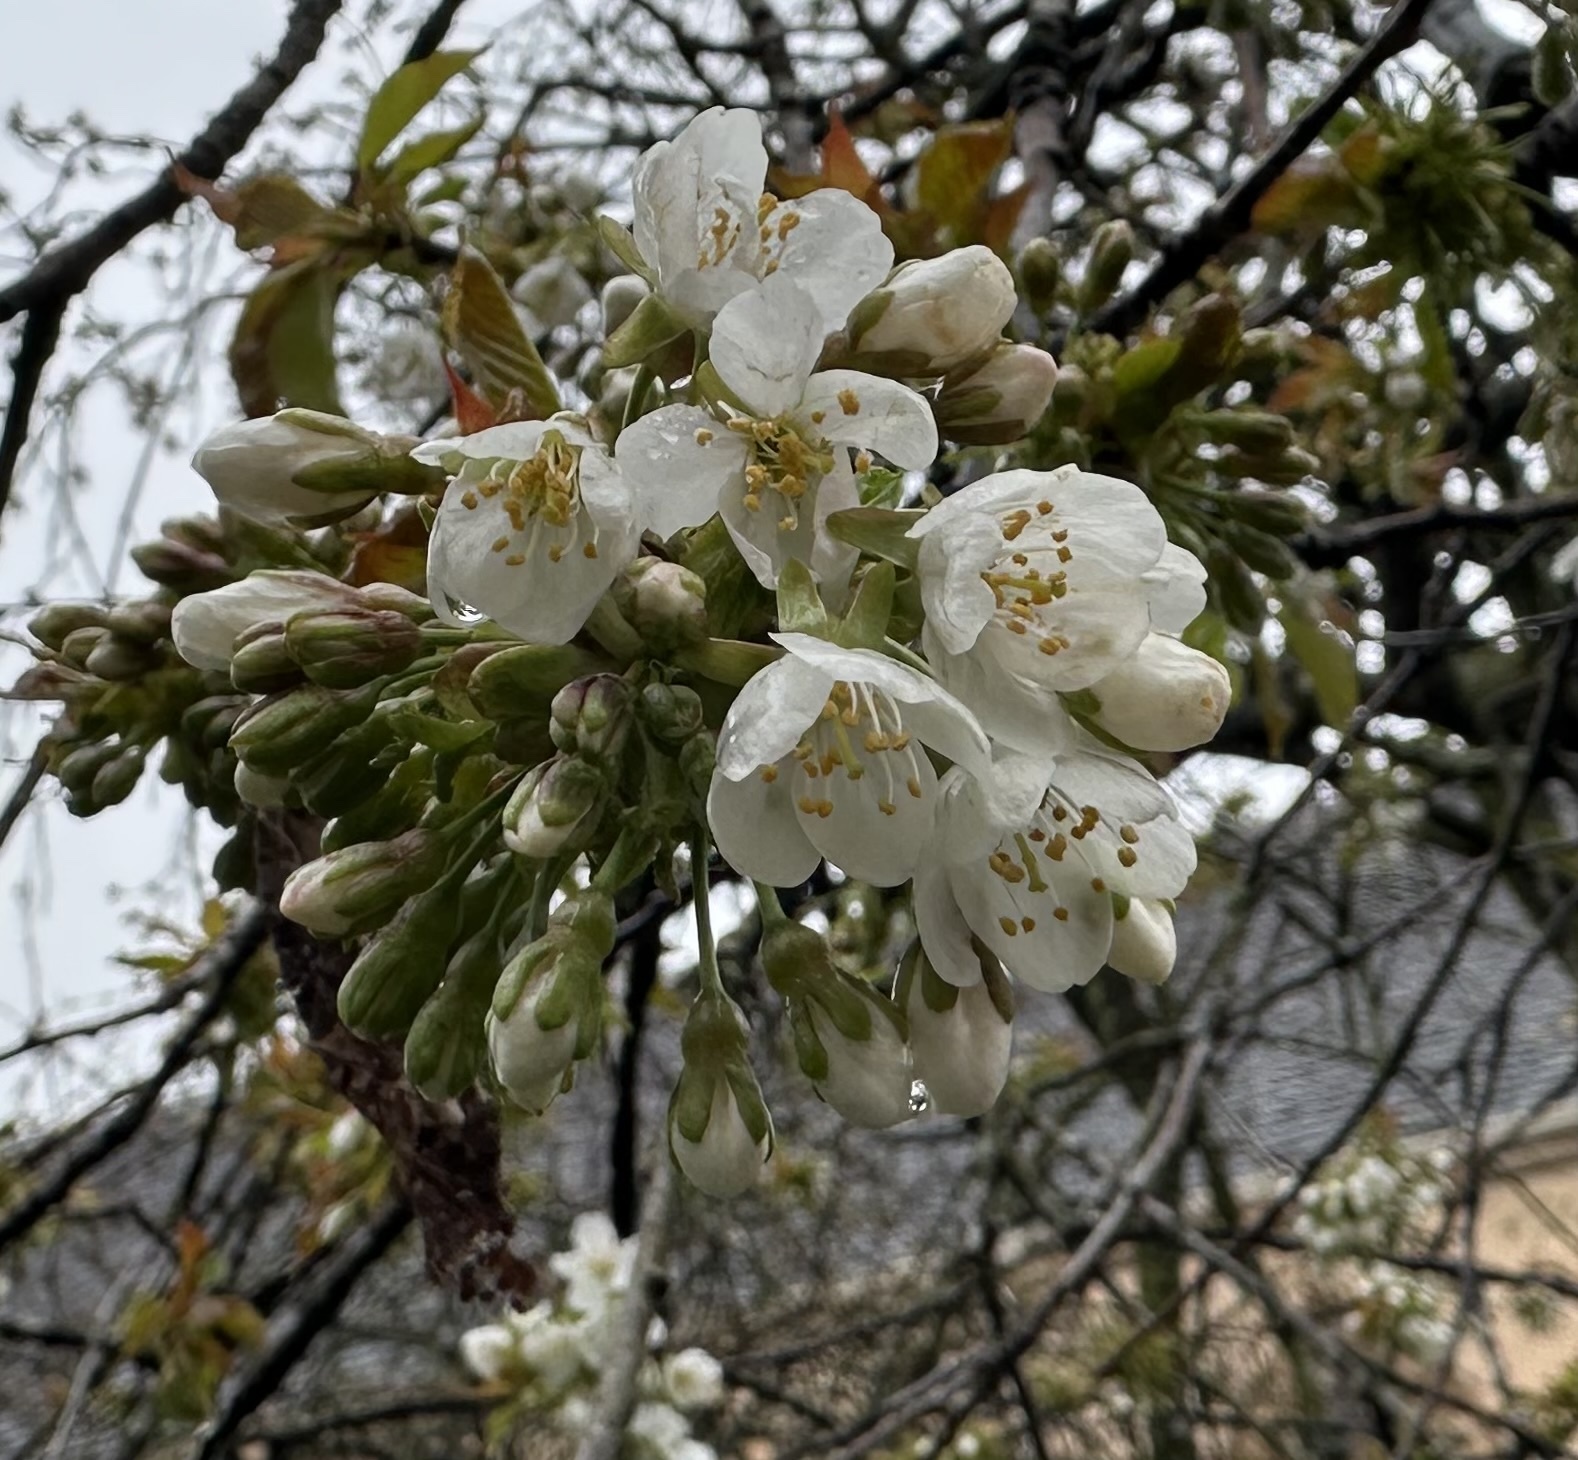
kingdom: Plantae
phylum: Tracheophyta
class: Magnoliopsida
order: Rosales
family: Rosaceae
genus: Prunus
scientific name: Prunus avium
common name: Sweet cherry
